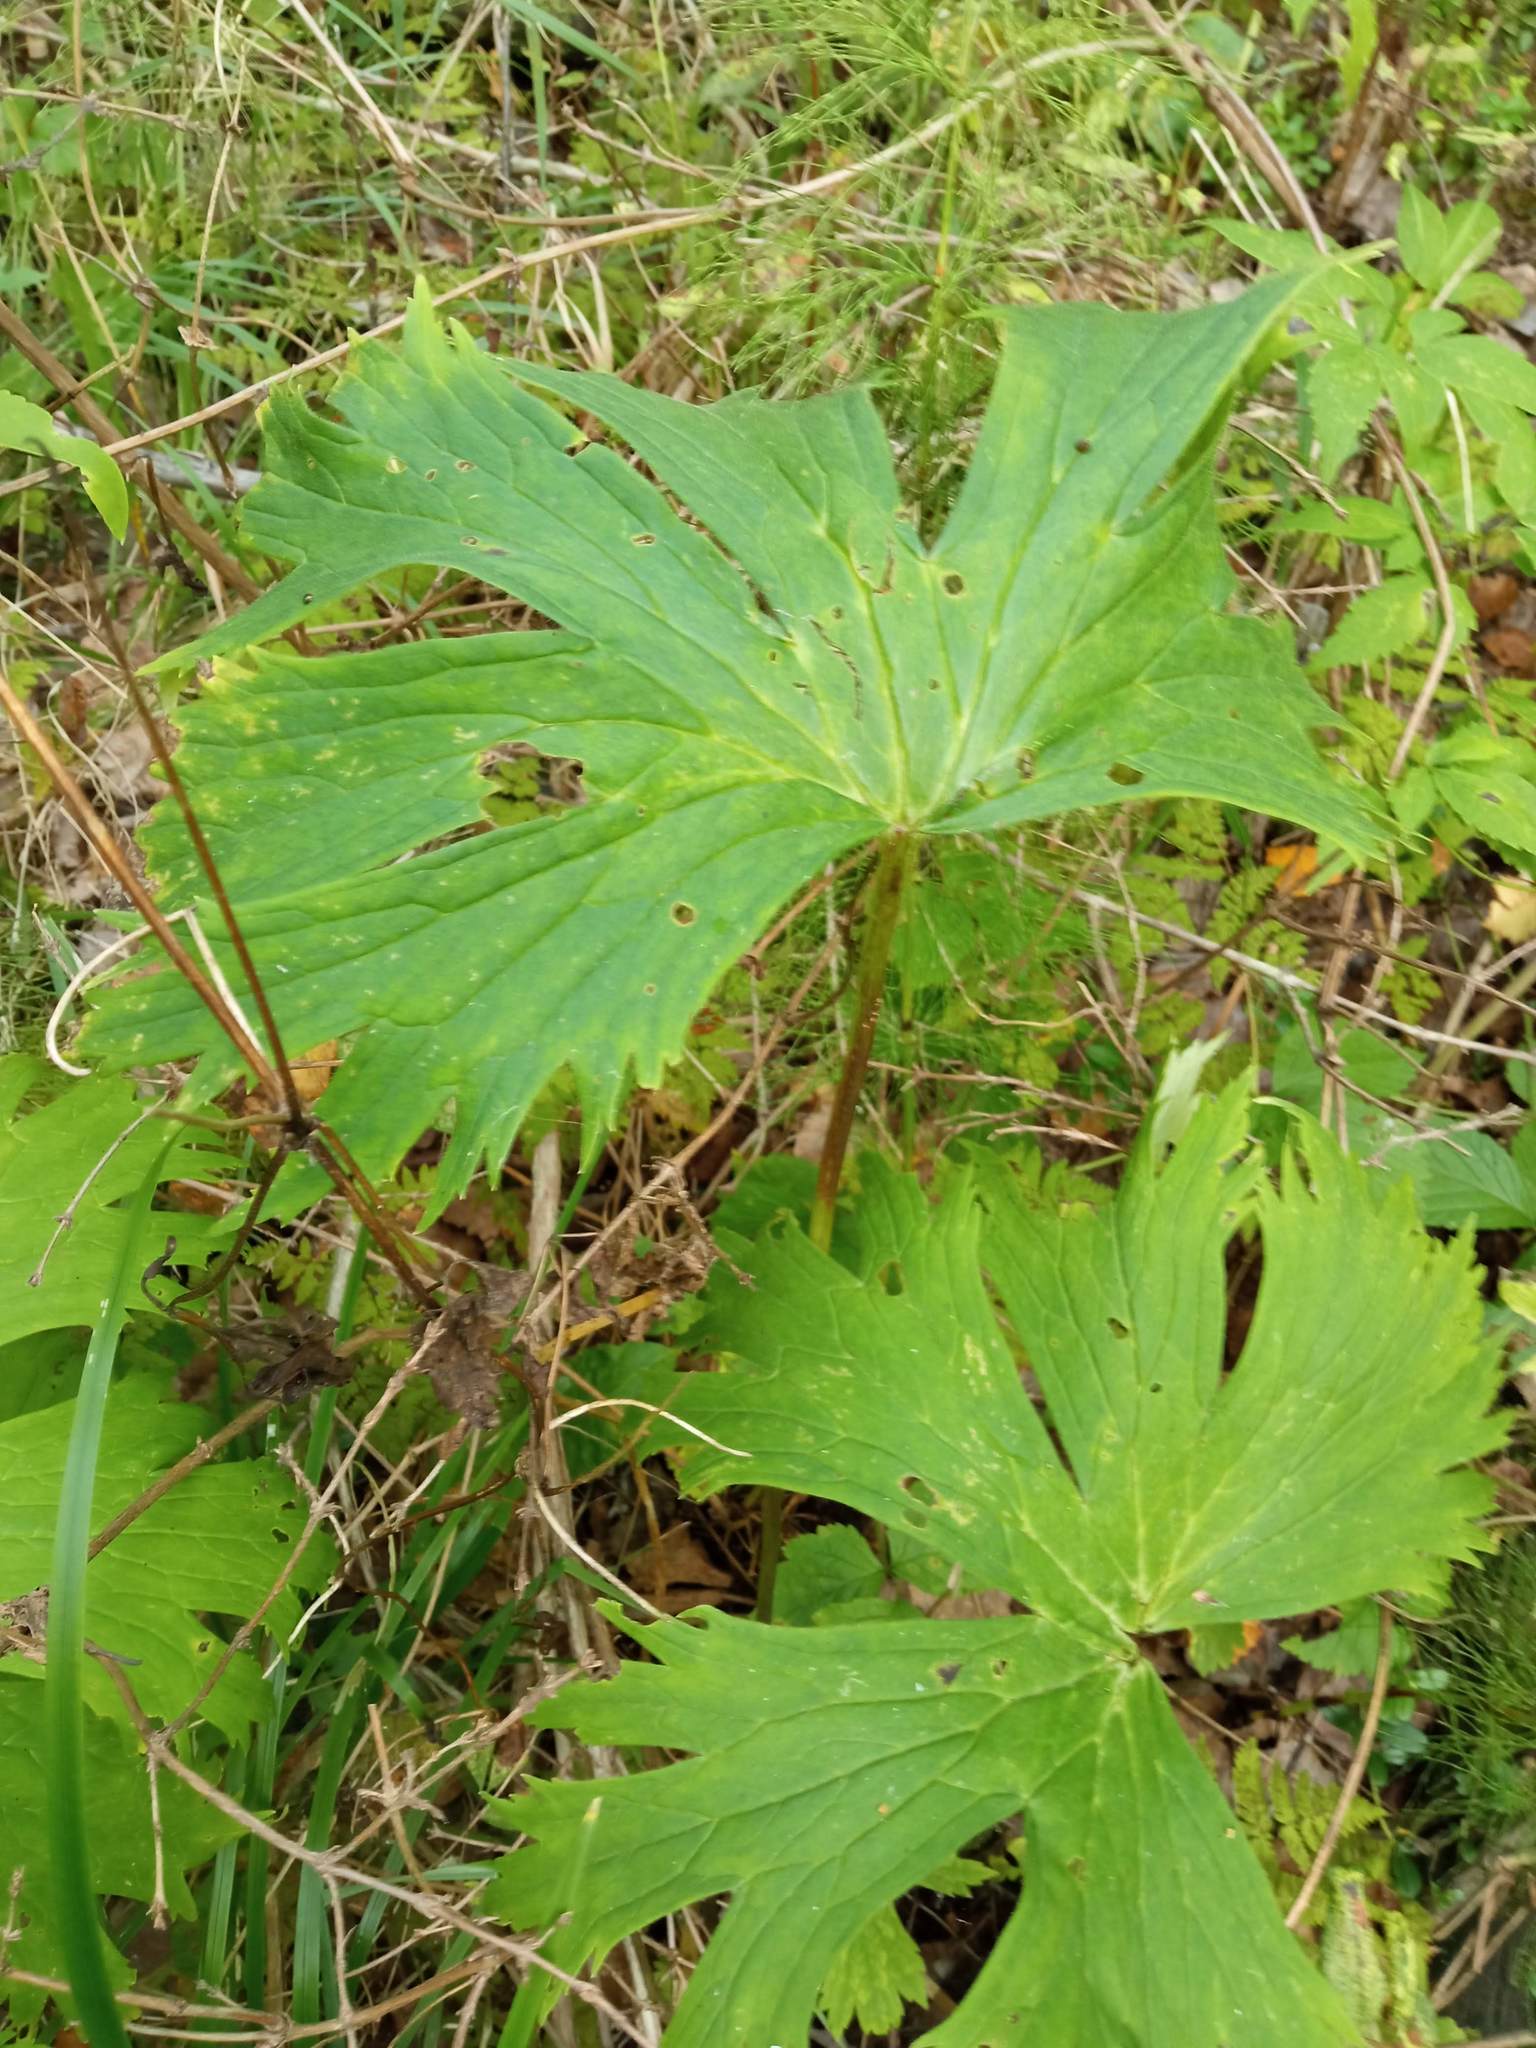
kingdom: Plantae
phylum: Tracheophyta
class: Magnoliopsida
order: Ranunculales
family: Ranunculaceae
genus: Aconitum
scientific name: Aconitum septentrionale
